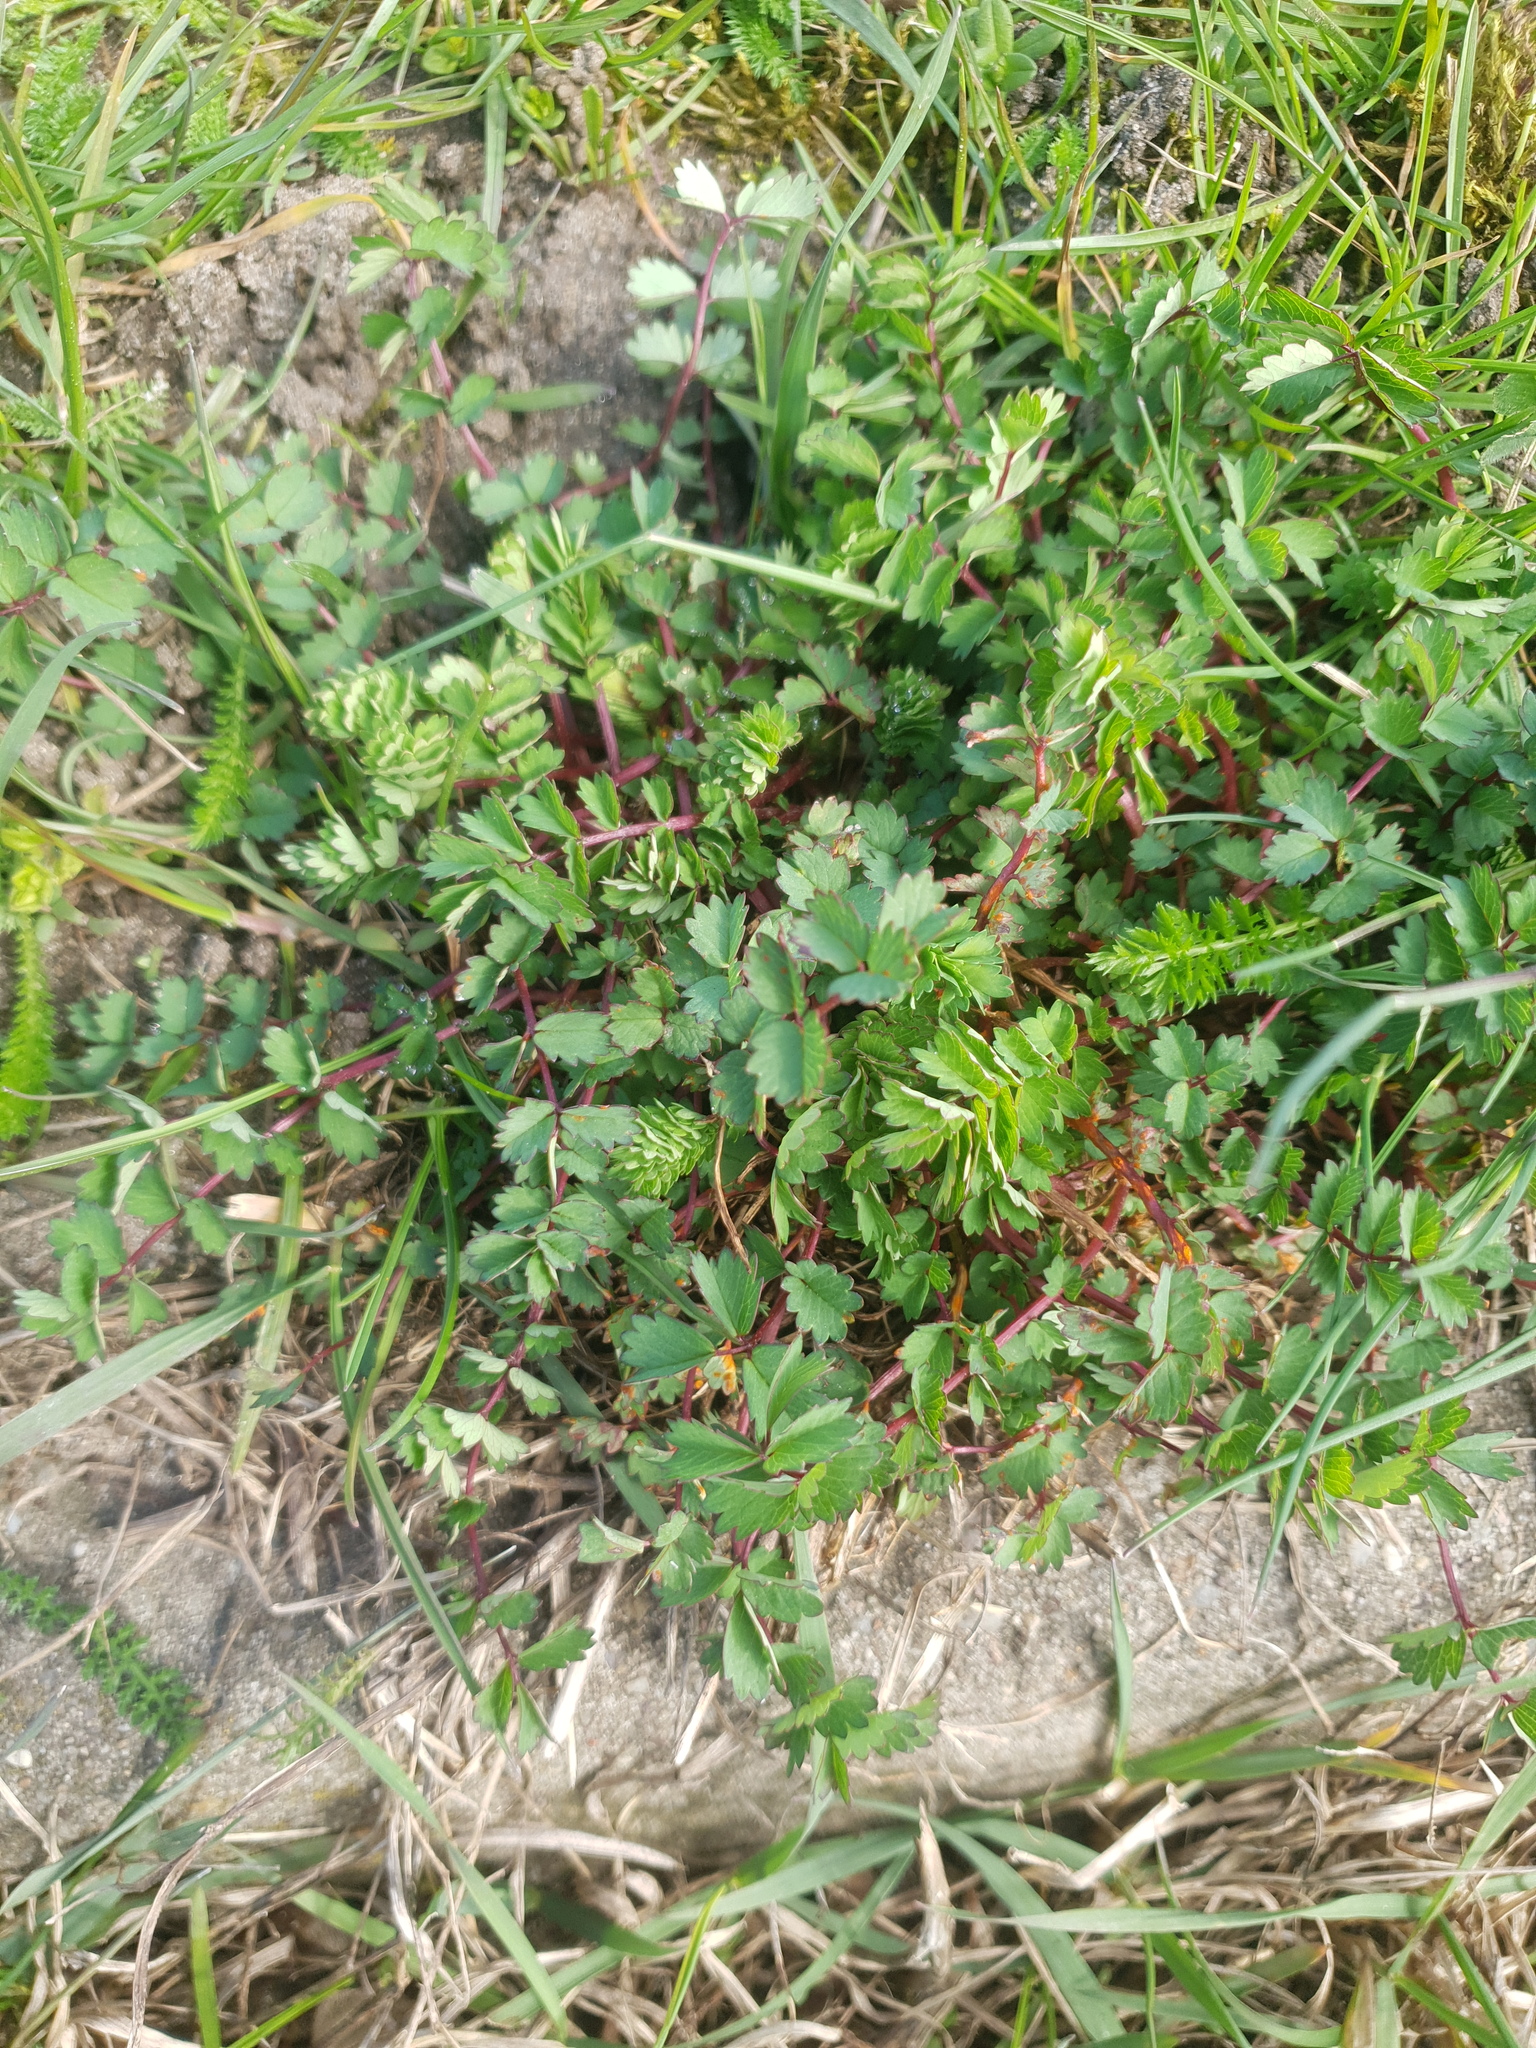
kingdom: Plantae
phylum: Tracheophyta
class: Magnoliopsida
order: Rosales
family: Rosaceae
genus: Poterium
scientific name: Poterium sanguisorba
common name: Salad burnet
